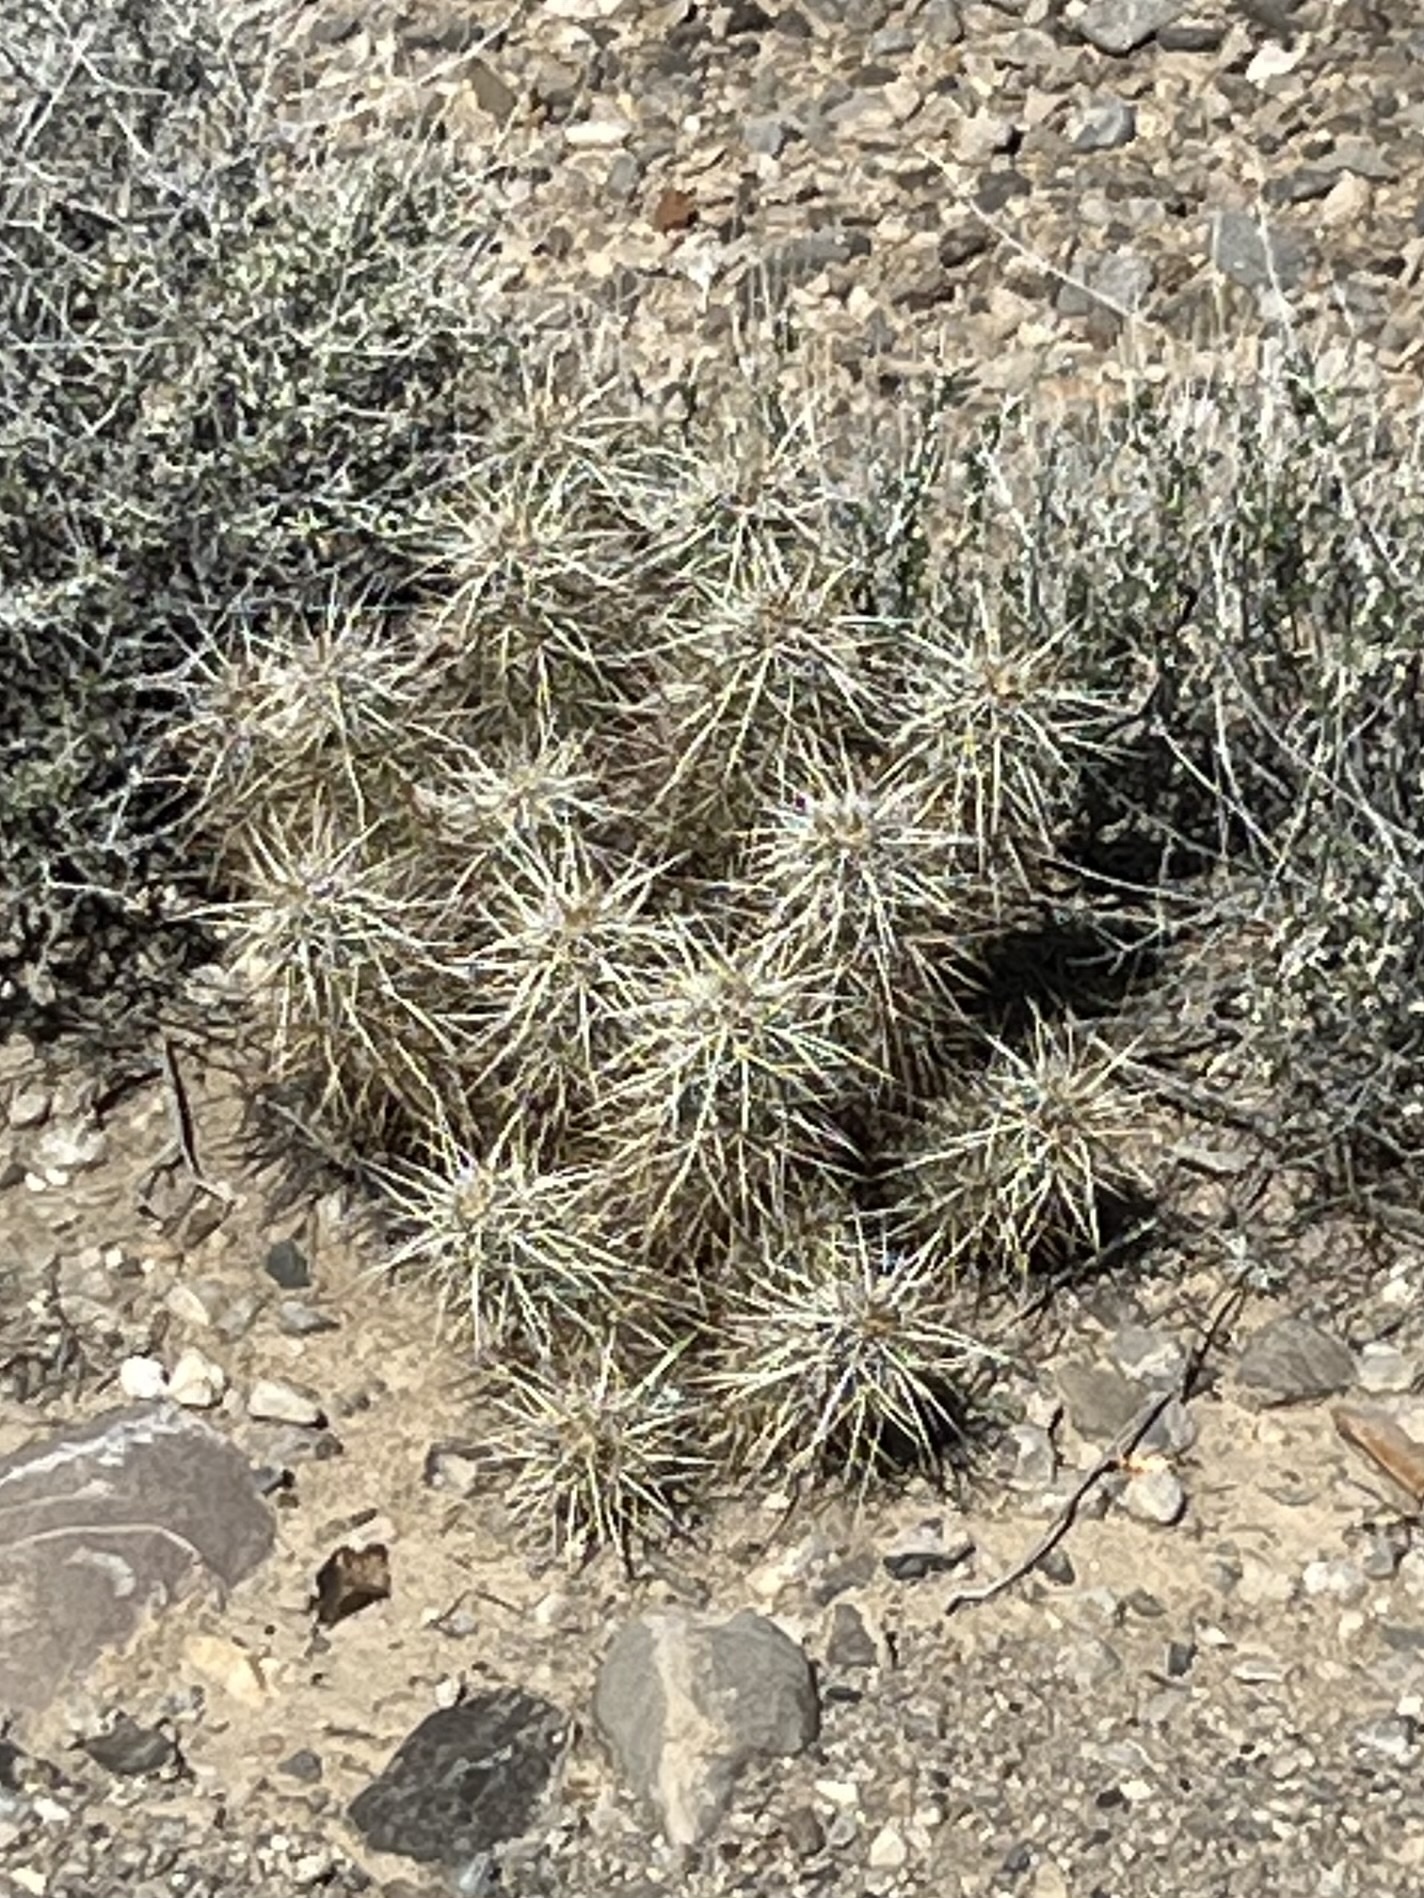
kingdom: Plantae
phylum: Tracheophyta
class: Magnoliopsida
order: Caryophyllales
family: Cactaceae
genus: Echinocereus
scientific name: Echinocereus engelmannii
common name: Engelmann's hedgehog cactus
